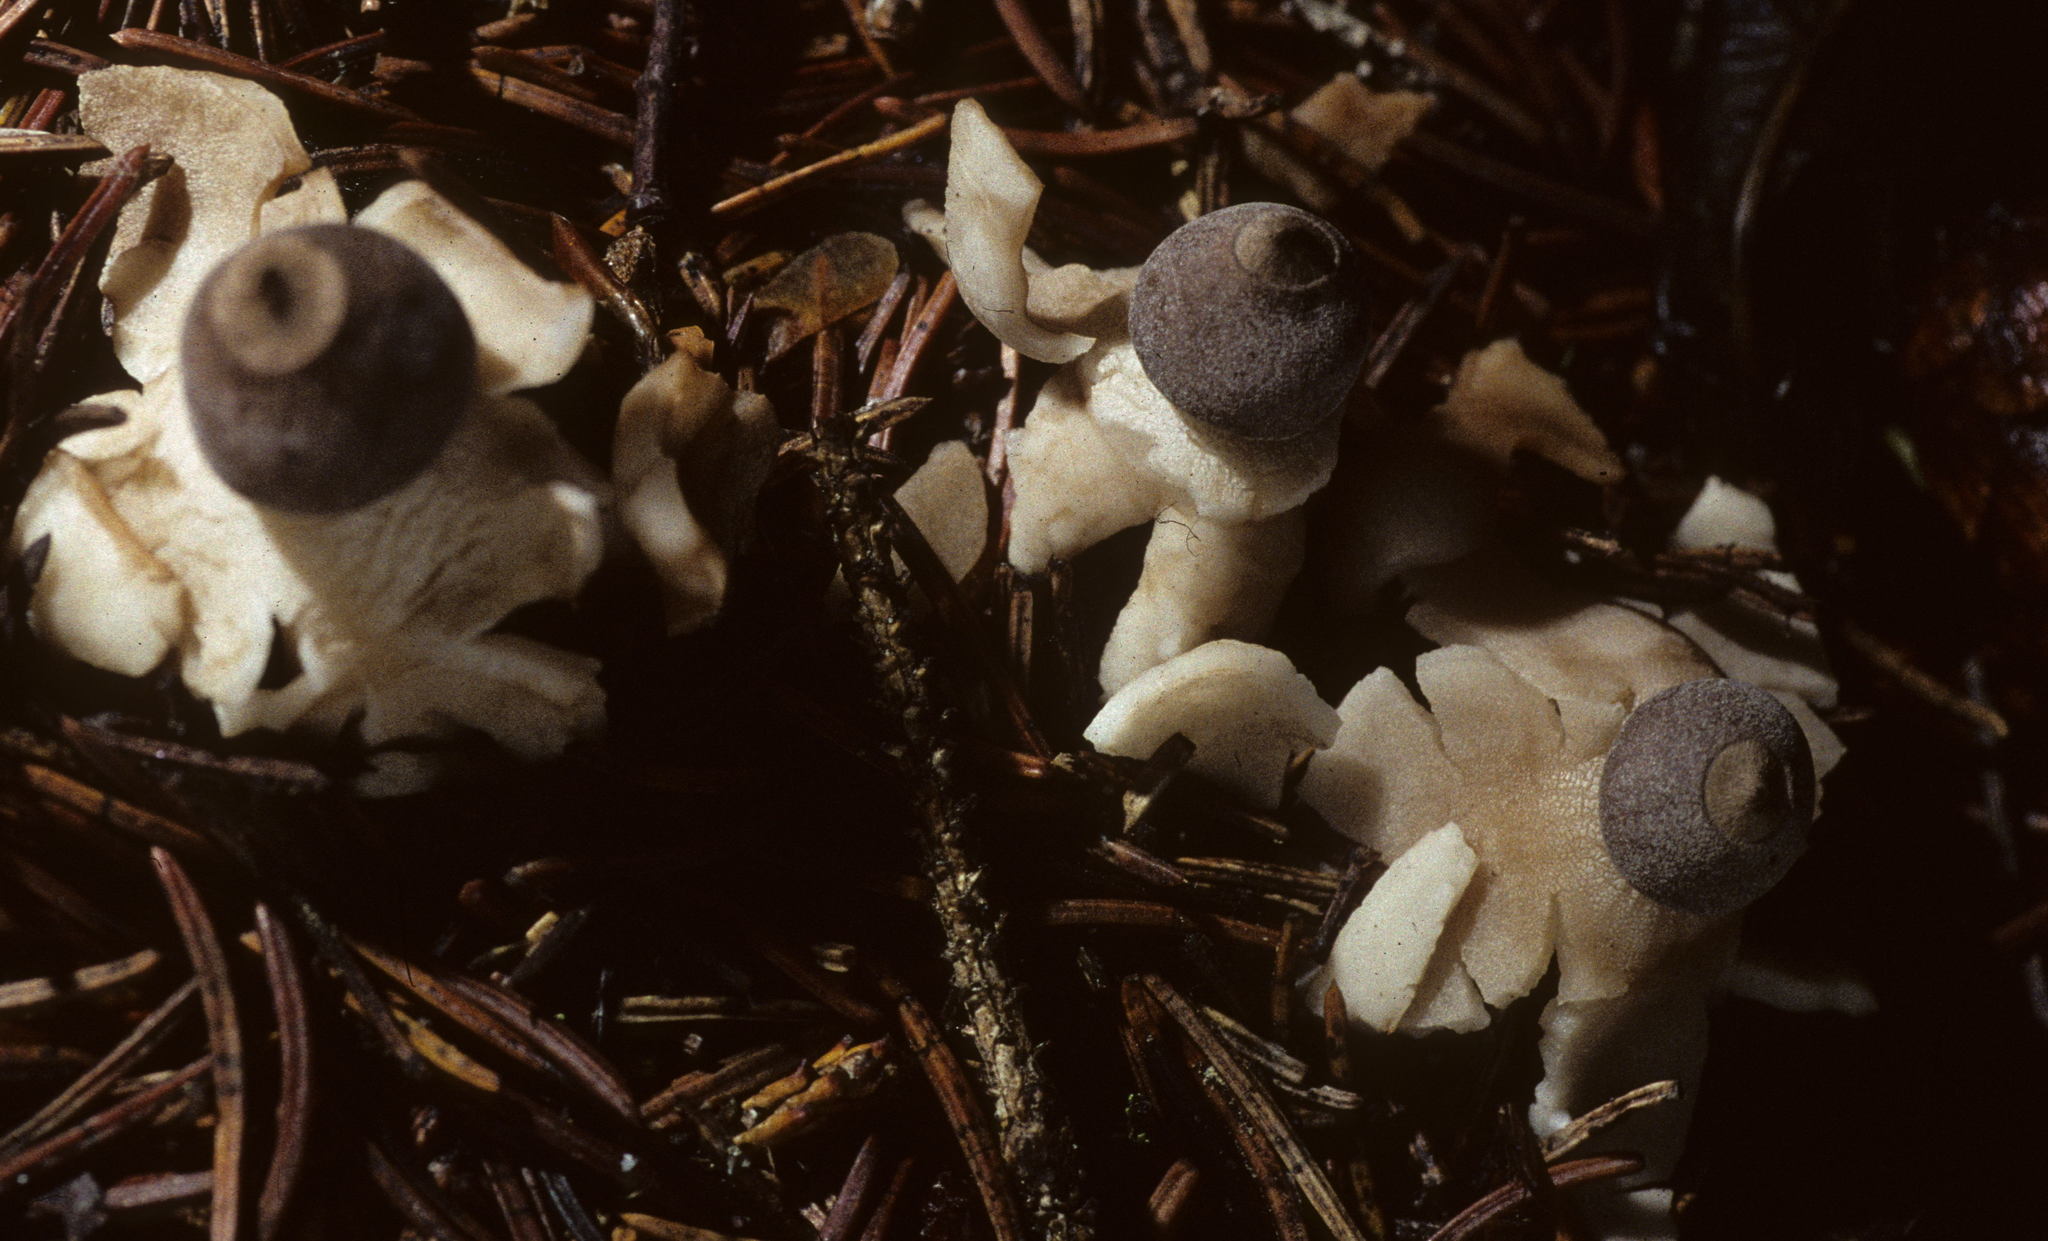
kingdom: Fungi
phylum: Basidiomycota
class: Agaricomycetes
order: Geastrales
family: Geastraceae
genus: Geastrum
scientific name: Geastrum quadrifidum
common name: Rayed earthstar
